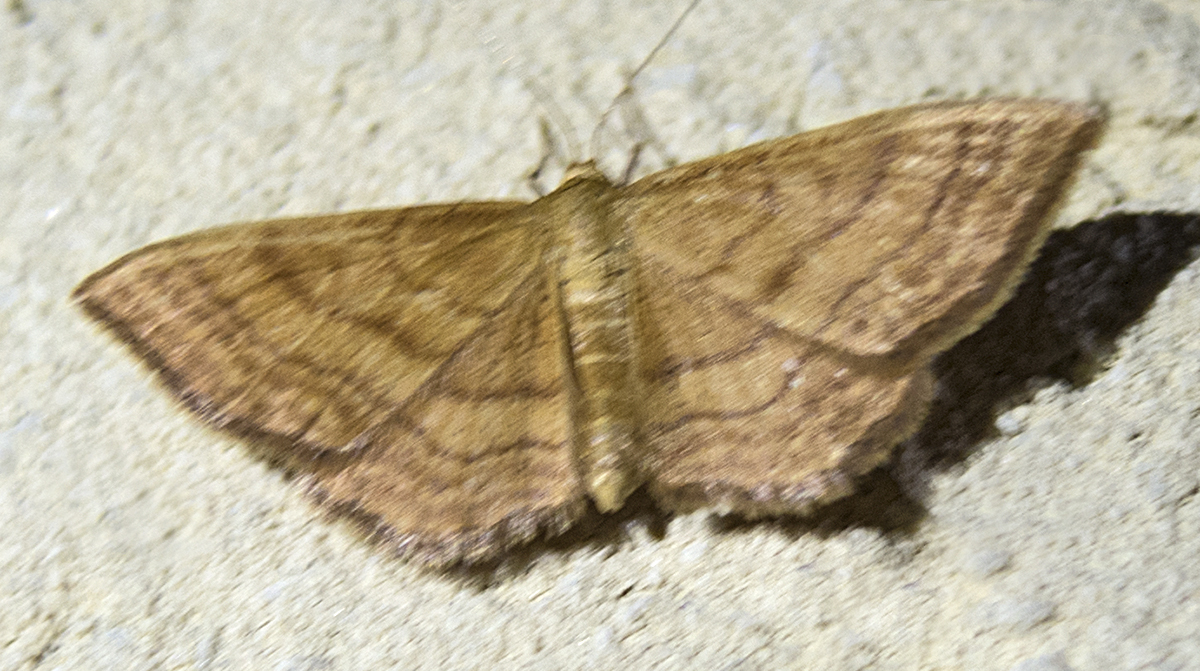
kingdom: Animalia
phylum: Arthropoda
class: Insecta
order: Lepidoptera
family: Geometridae
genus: Idaea
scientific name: Idaea ochrata
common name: Bright wave
